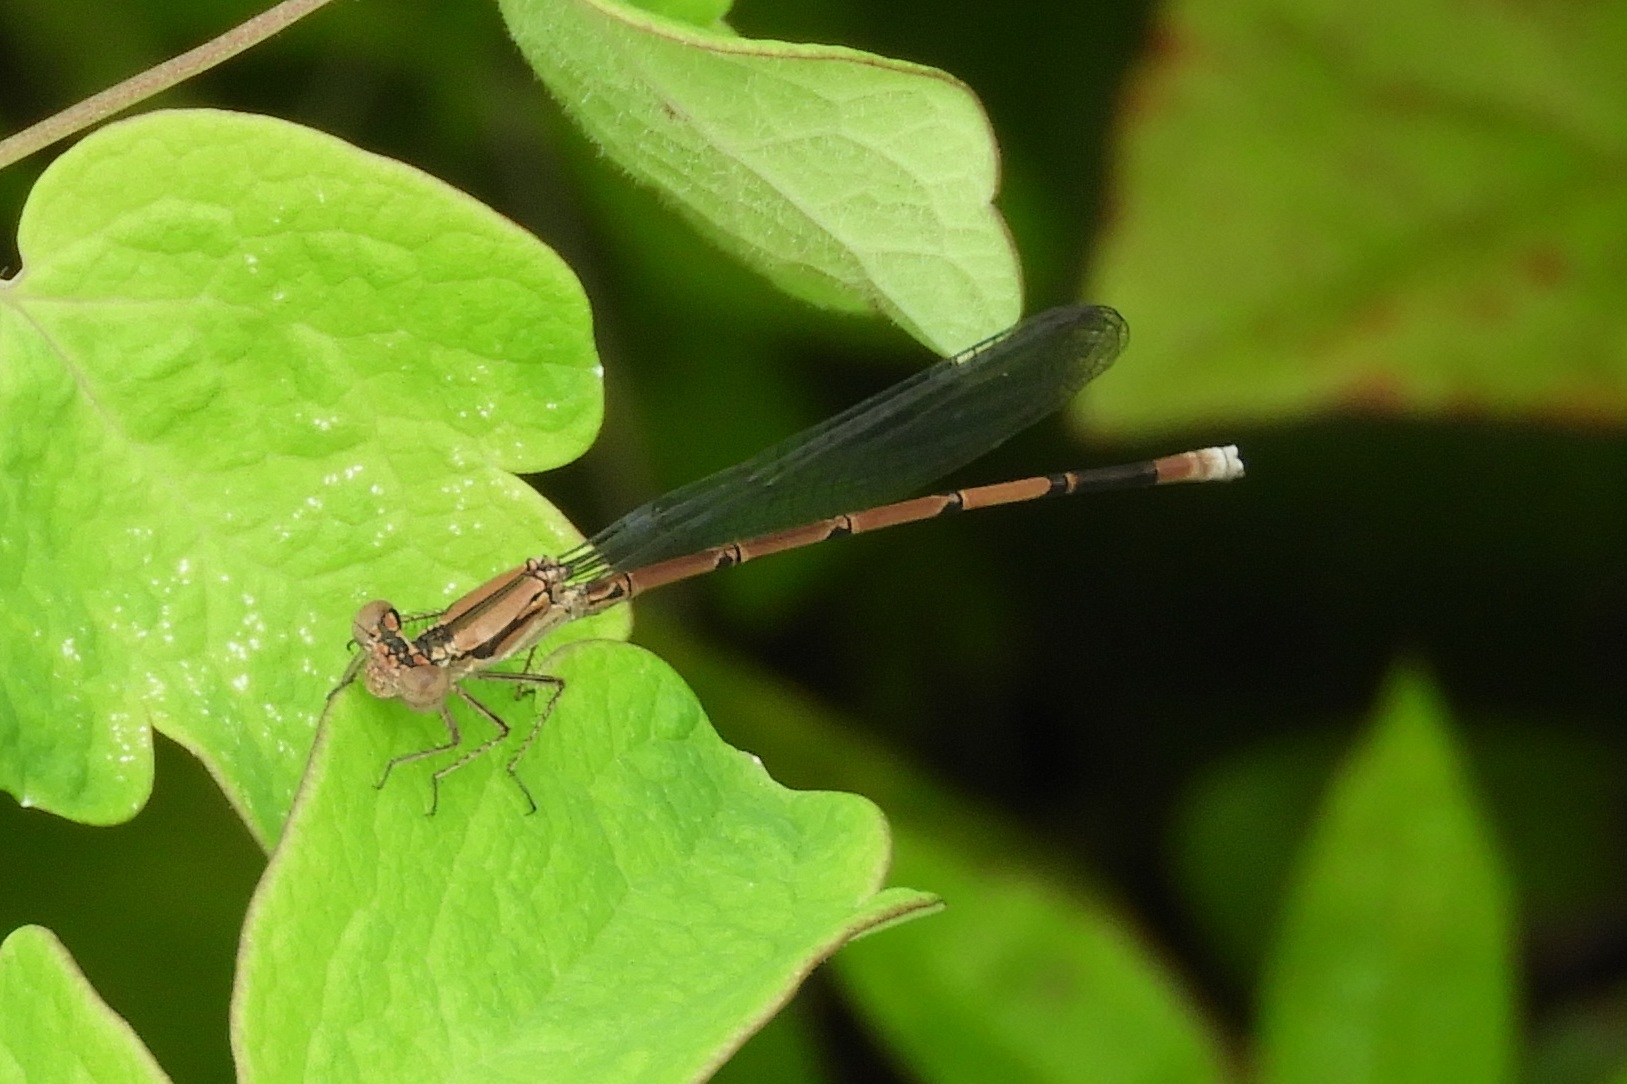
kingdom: Animalia
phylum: Arthropoda
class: Insecta
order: Odonata
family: Coenagrionidae
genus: Argia
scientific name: Argia fumipennis
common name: Variable dancer
